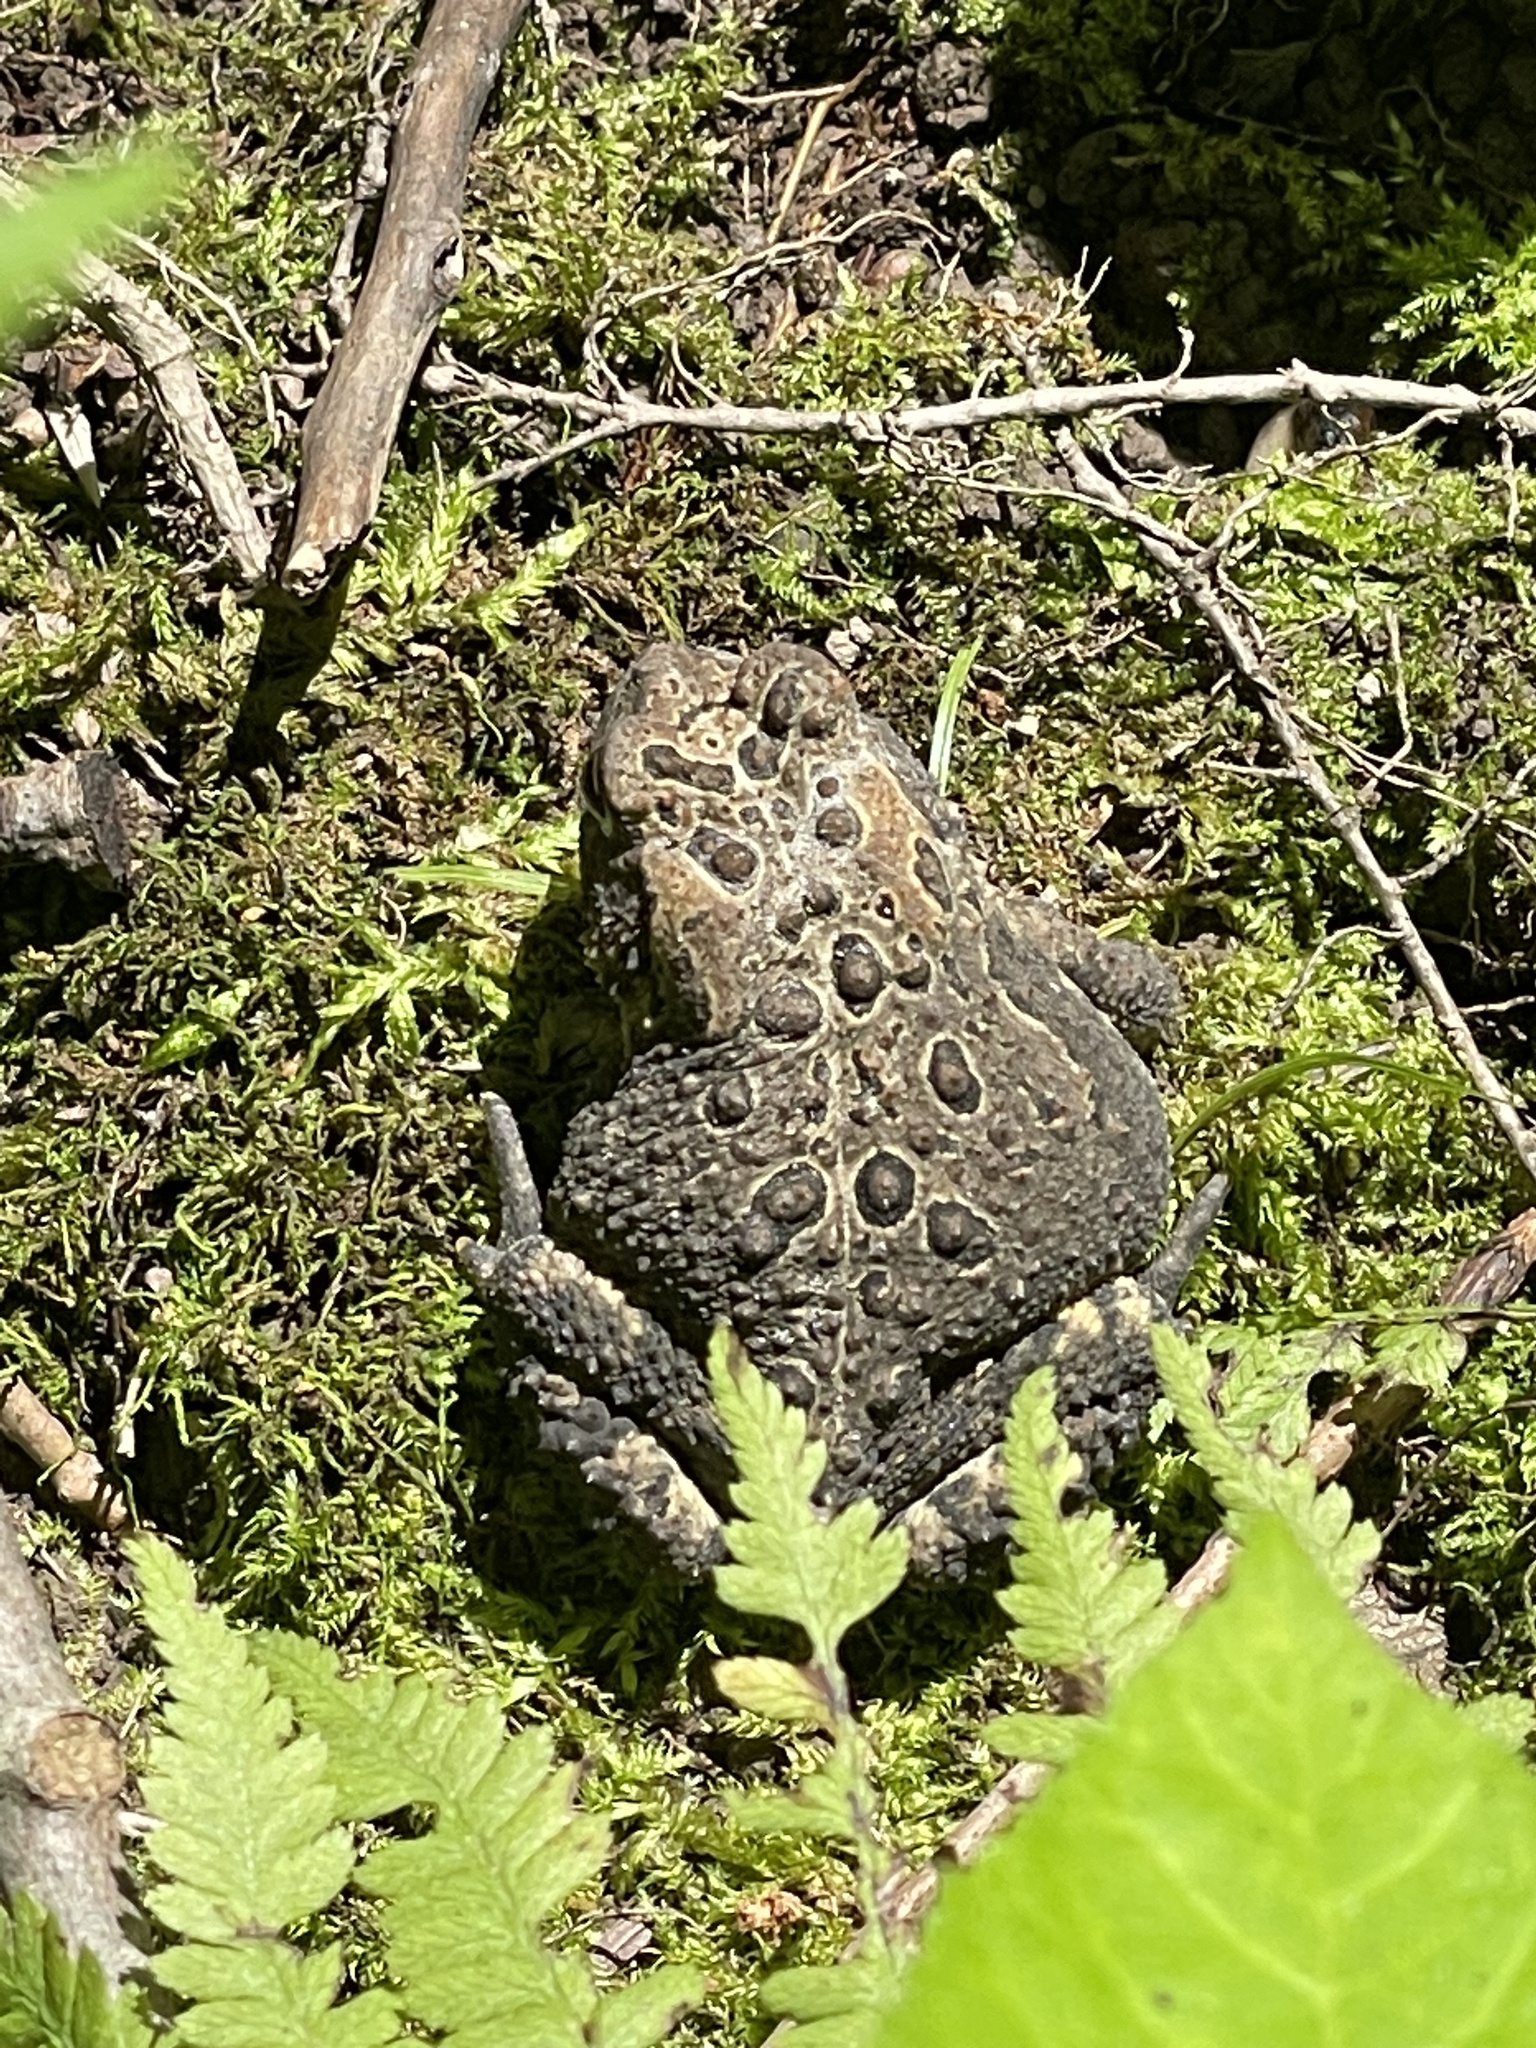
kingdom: Animalia
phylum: Chordata
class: Amphibia
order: Anura
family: Bufonidae
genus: Anaxyrus
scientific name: Anaxyrus americanus
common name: American toad
